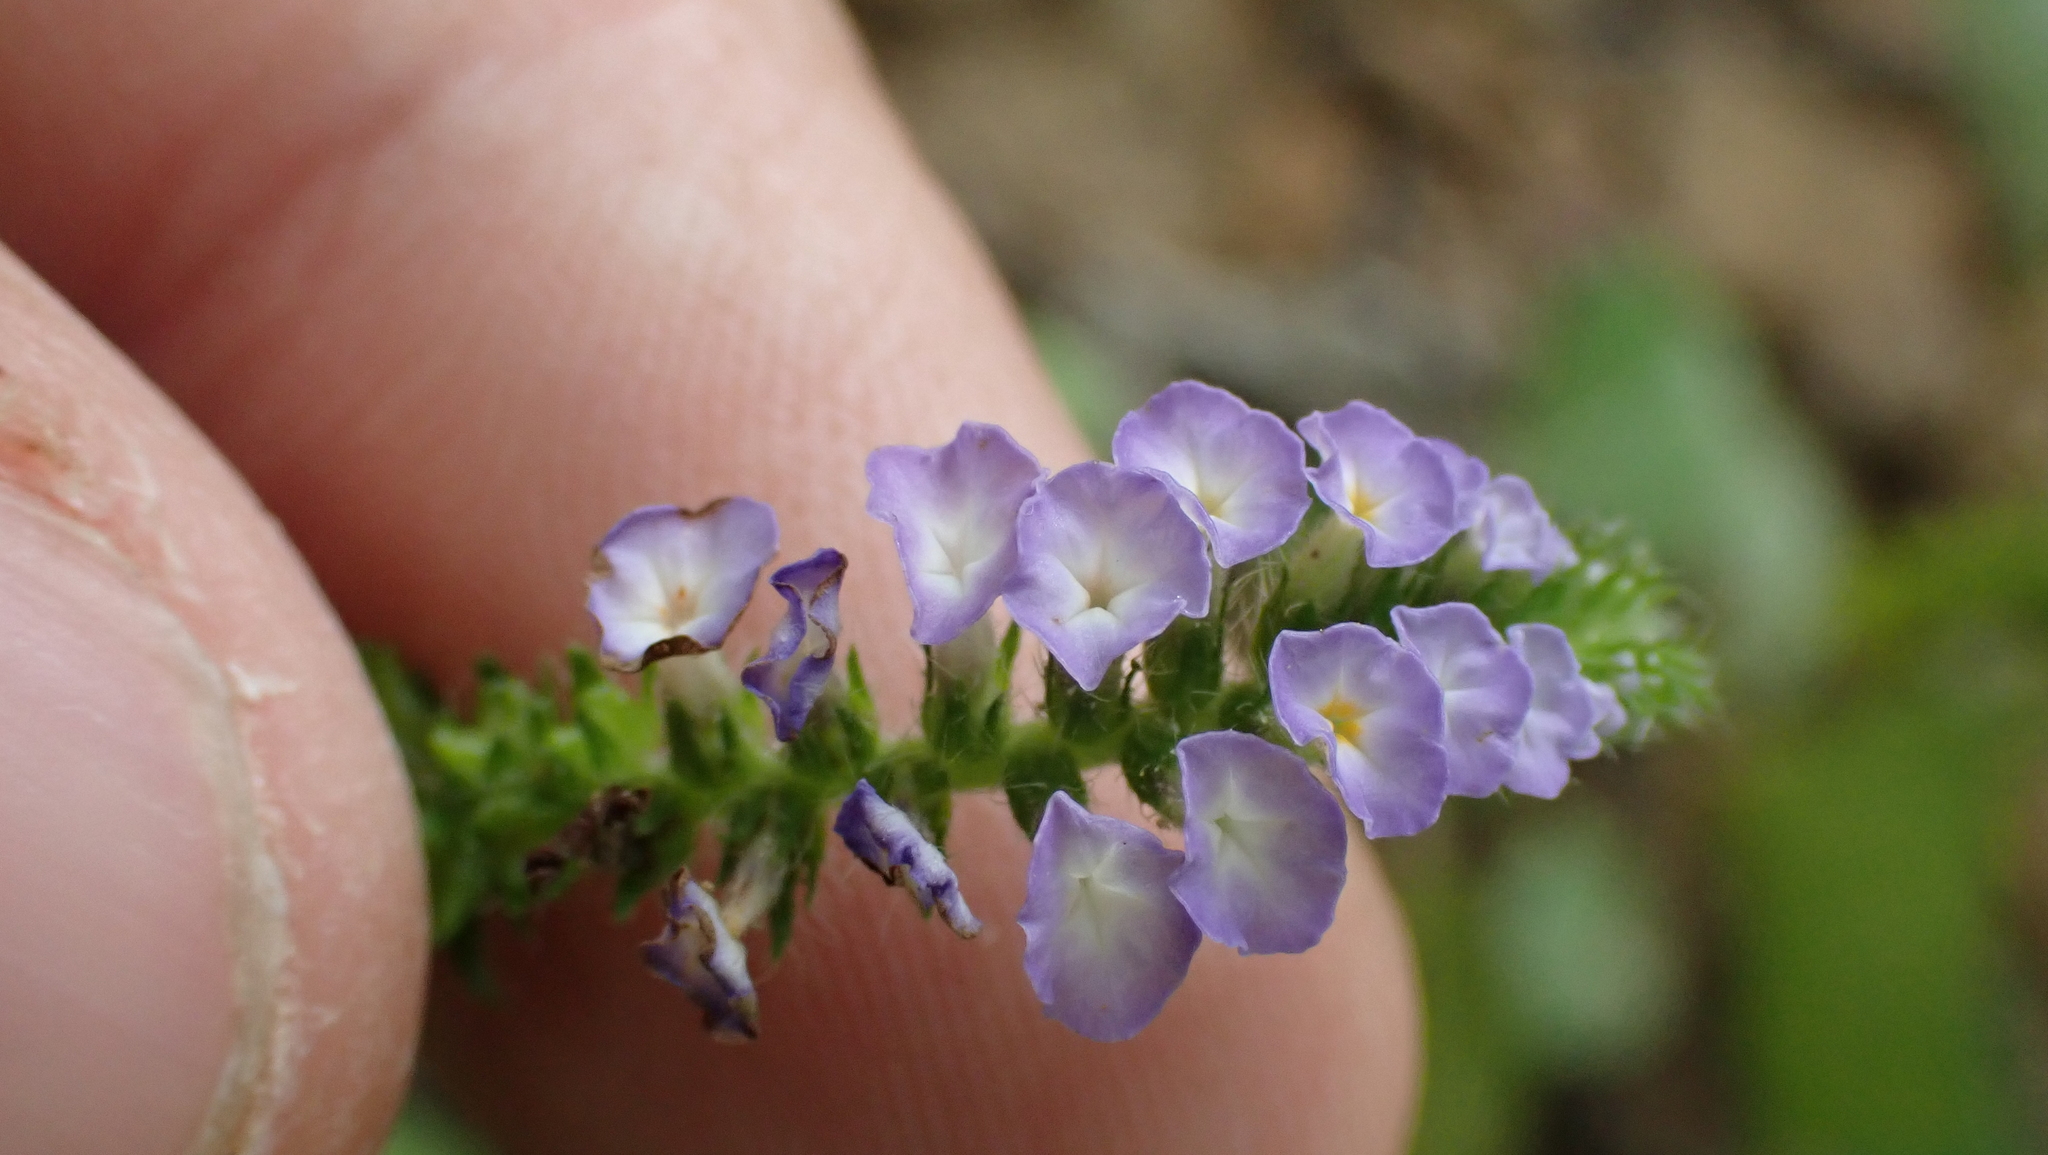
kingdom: Plantae
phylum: Tracheophyta
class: Magnoliopsida
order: Boraginales
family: Heliotropiaceae
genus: Heliotropium
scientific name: Heliotropium indicum
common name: Indian heliotrope
